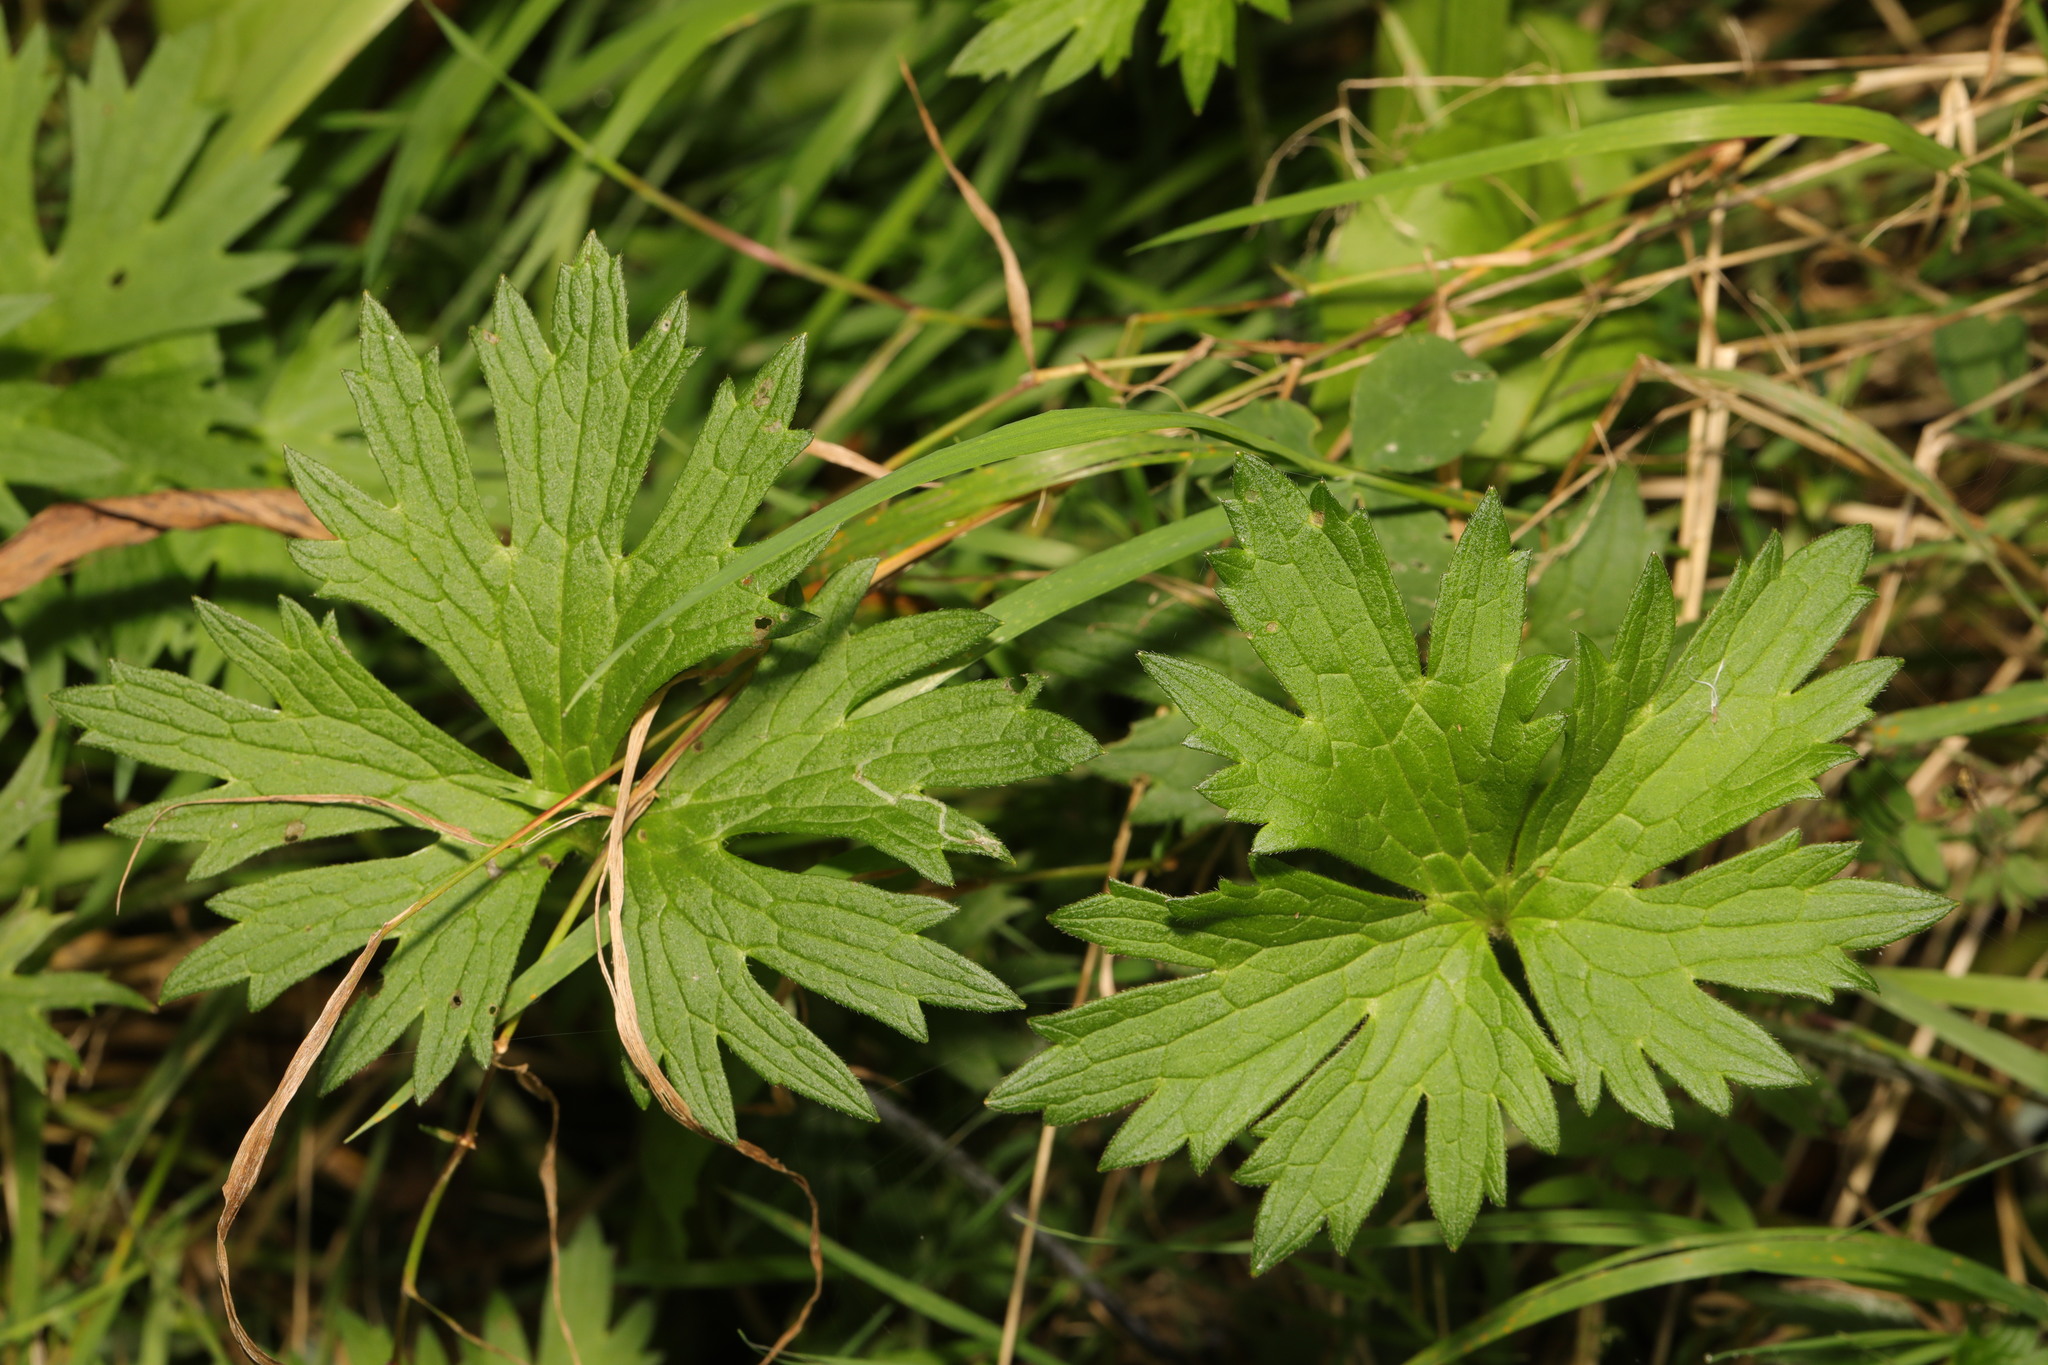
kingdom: Plantae
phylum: Tracheophyta
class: Magnoliopsida
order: Ranunculales
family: Ranunculaceae
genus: Ranunculus
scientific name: Ranunculus acris
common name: Meadow buttercup
